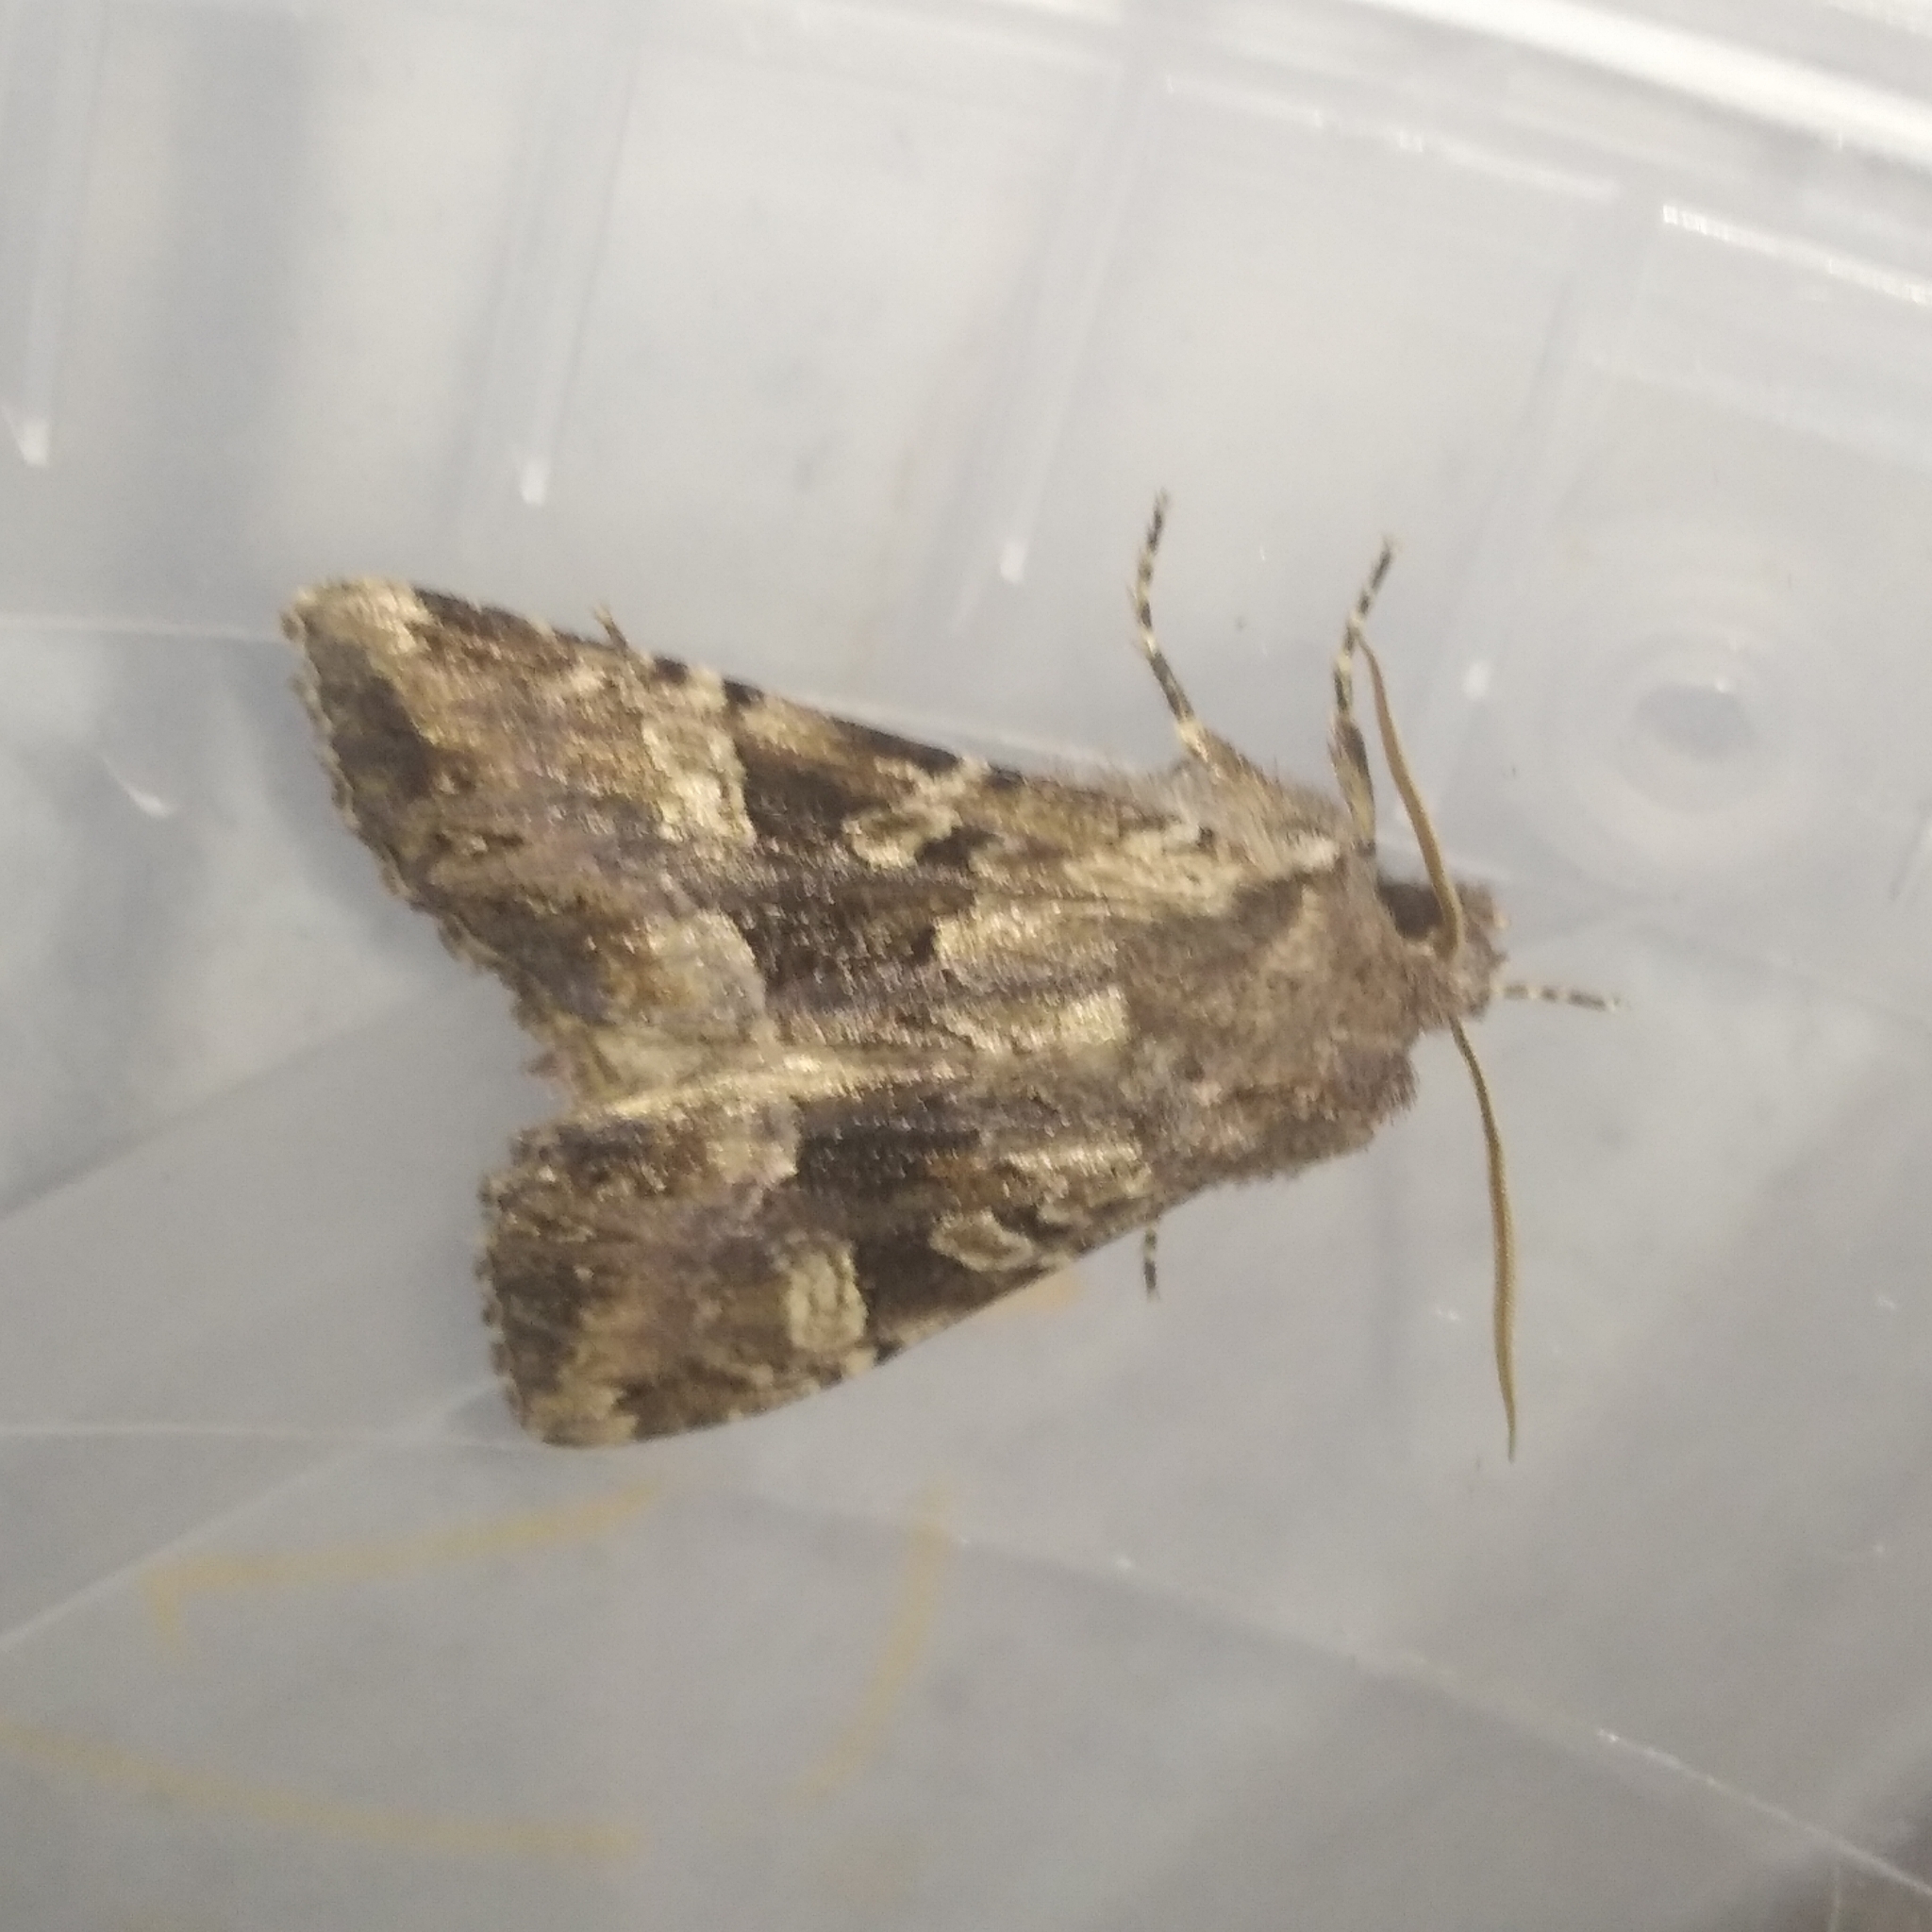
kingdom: Animalia
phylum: Arthropoda
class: Insecta
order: Lepidoptera
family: Noctuidae
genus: Blepharita
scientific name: Blepharita amica
